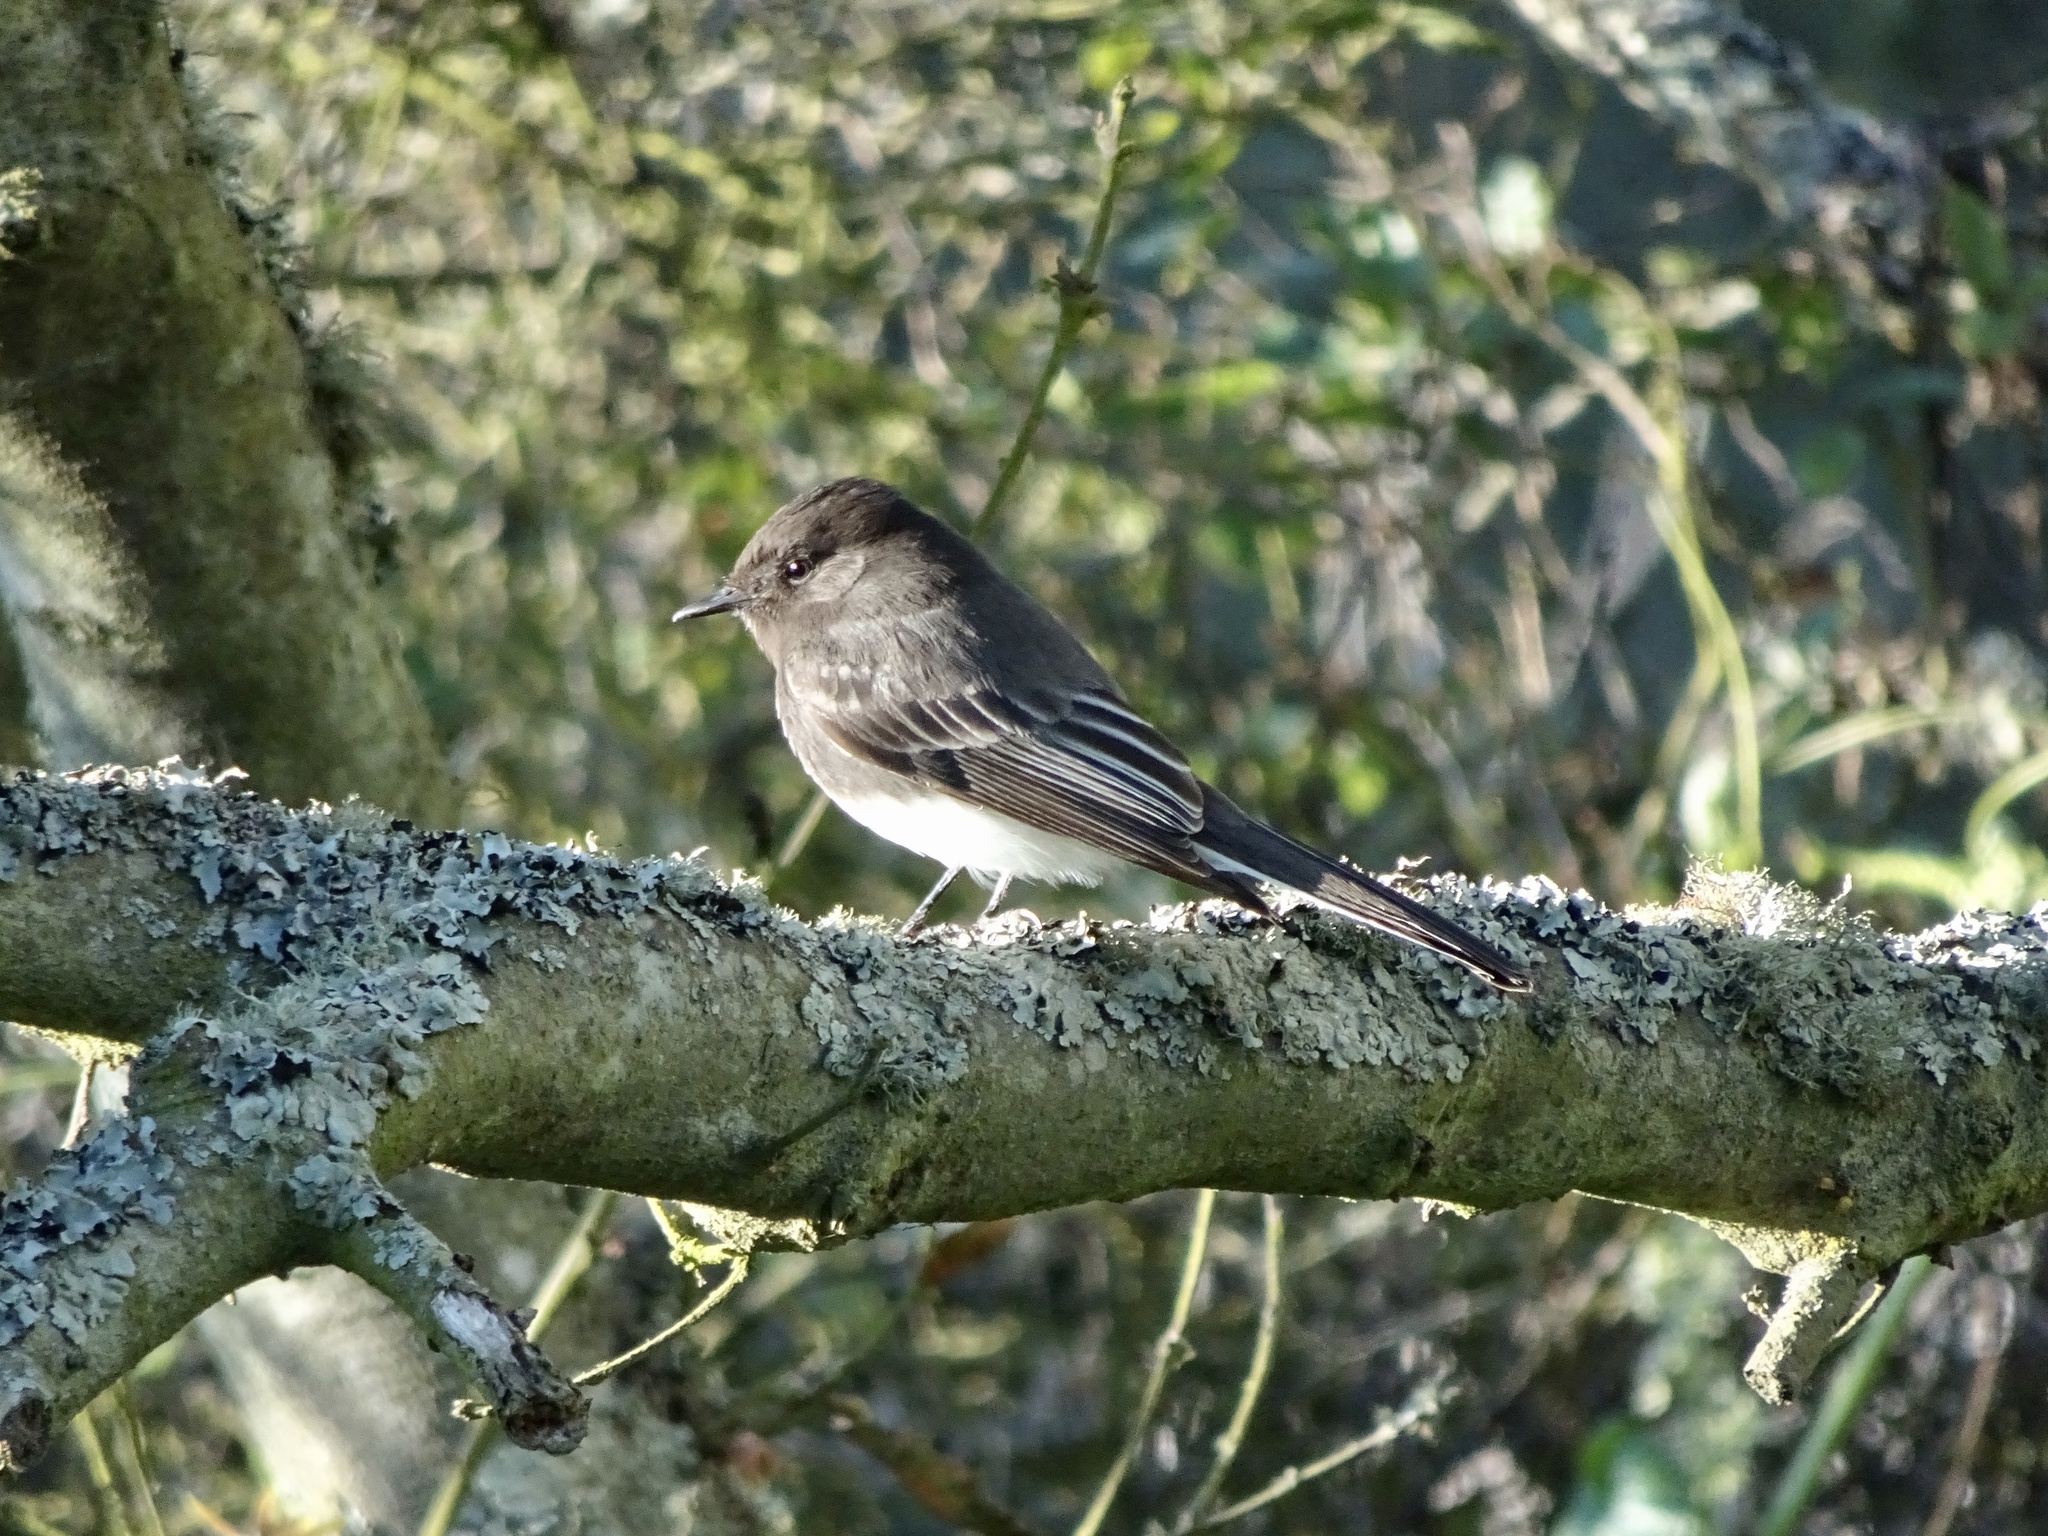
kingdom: Animalia
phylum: Chordata
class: Aves
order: Passeriformes
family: Tyrannidae
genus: Sayornis
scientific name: Sayornis nigricans
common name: Black phoebe
